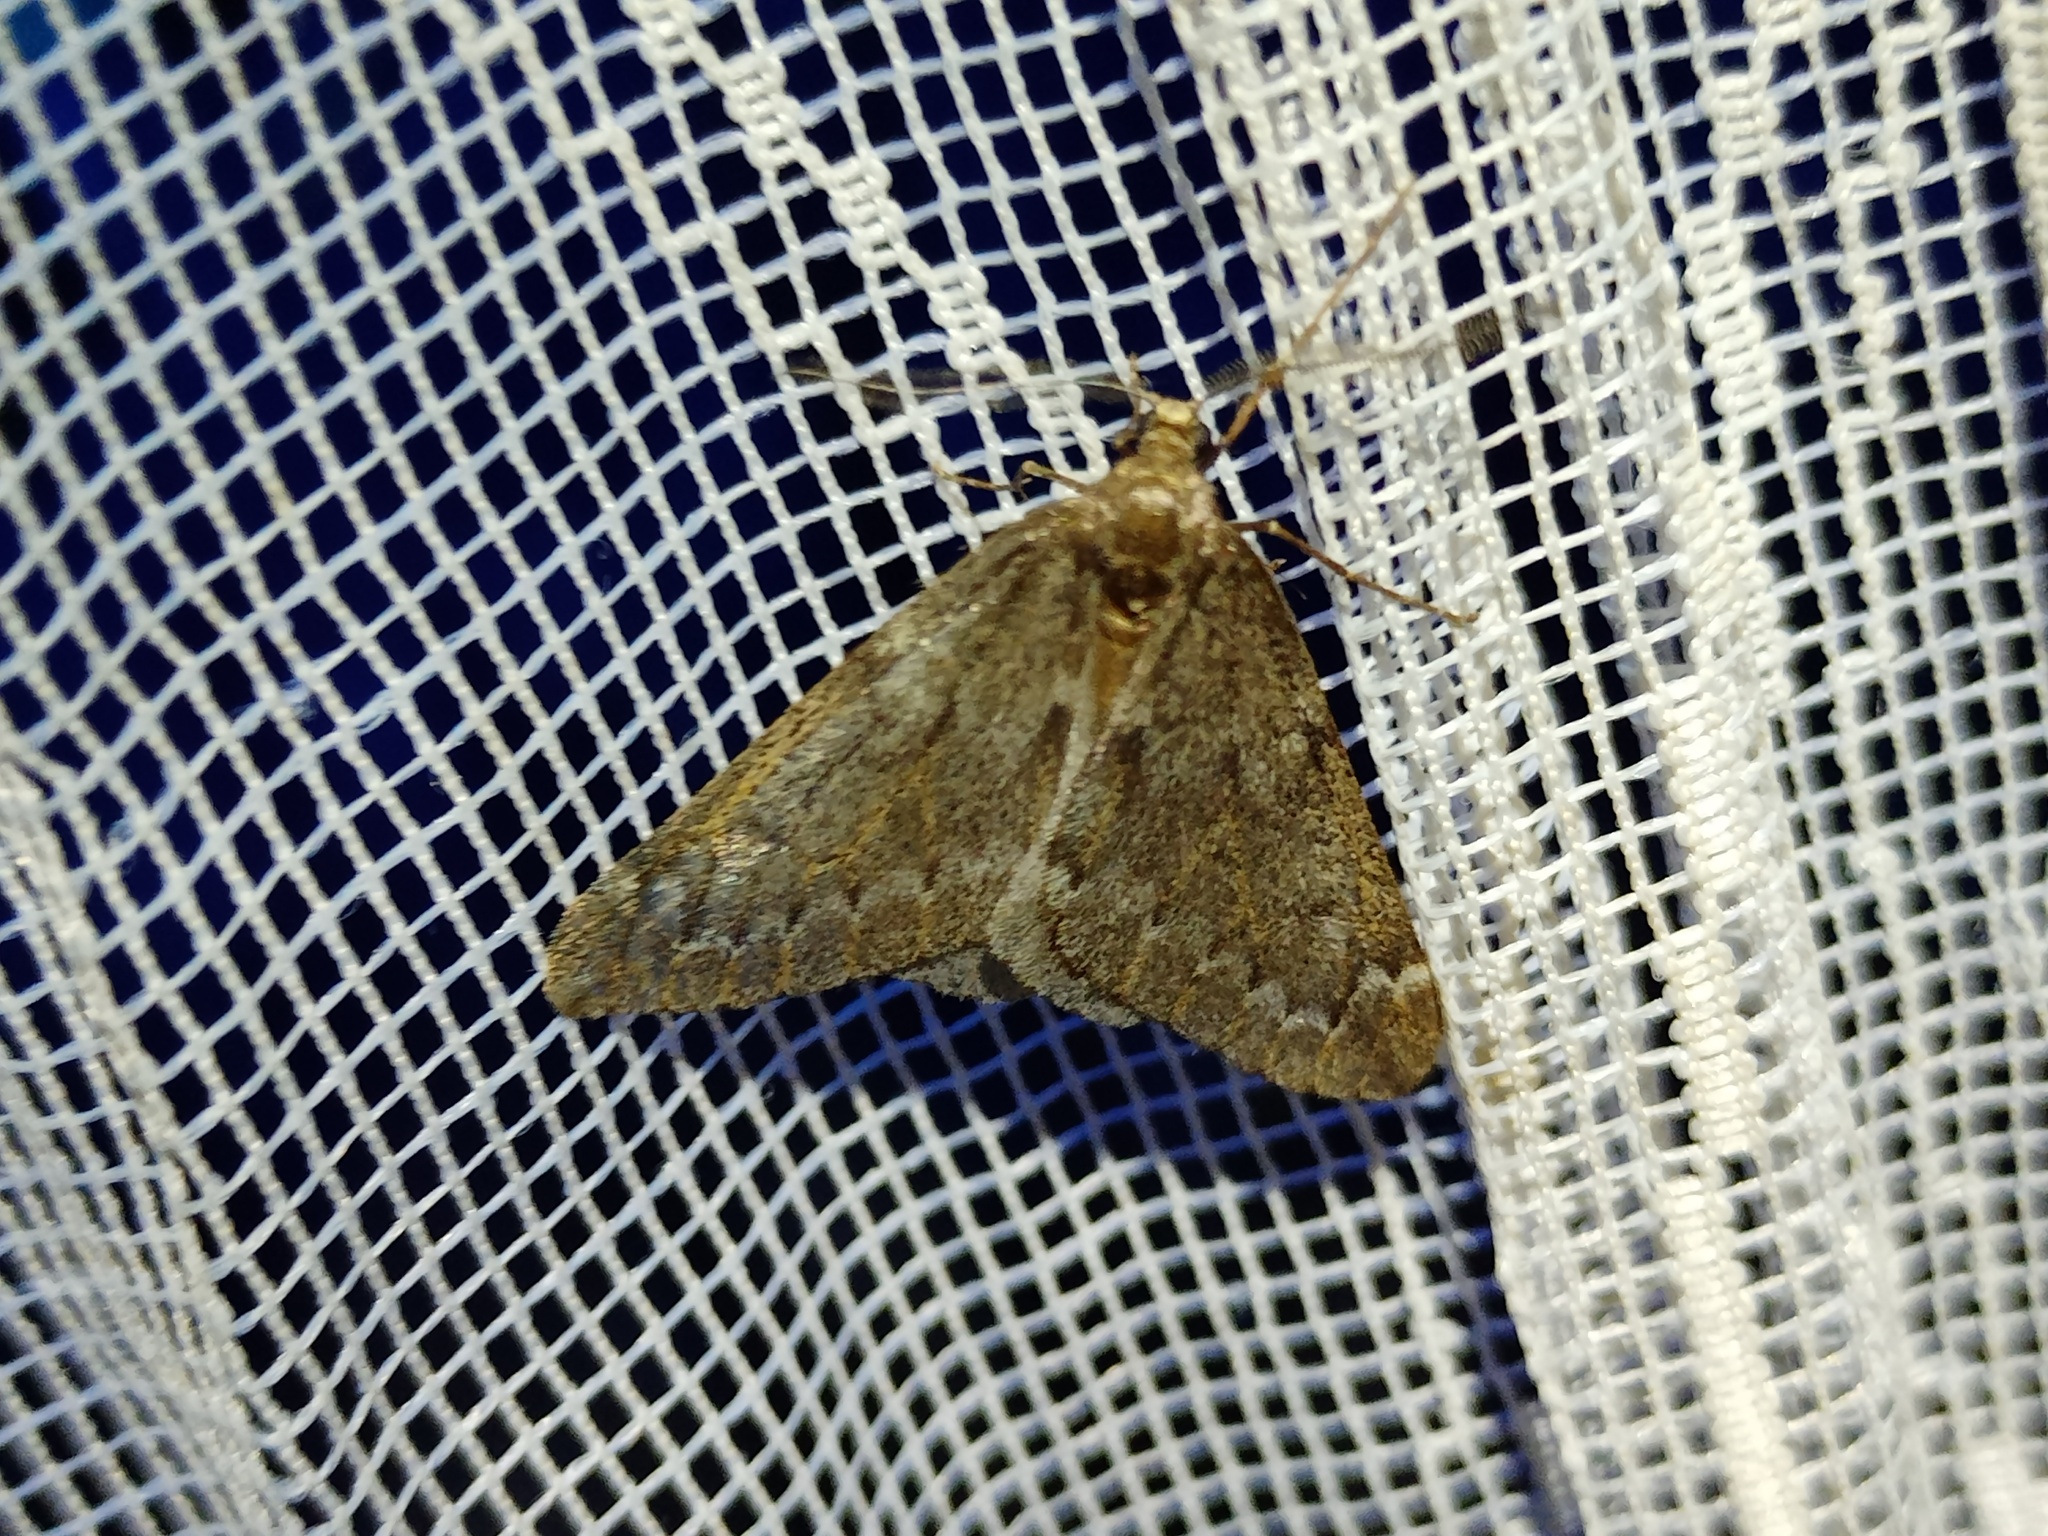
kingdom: Animalia
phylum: Arthropoda
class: Insecta
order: Lepidoptera
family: Geometridae
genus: Alsophila
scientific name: Alsophila aescularia
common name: March moth
